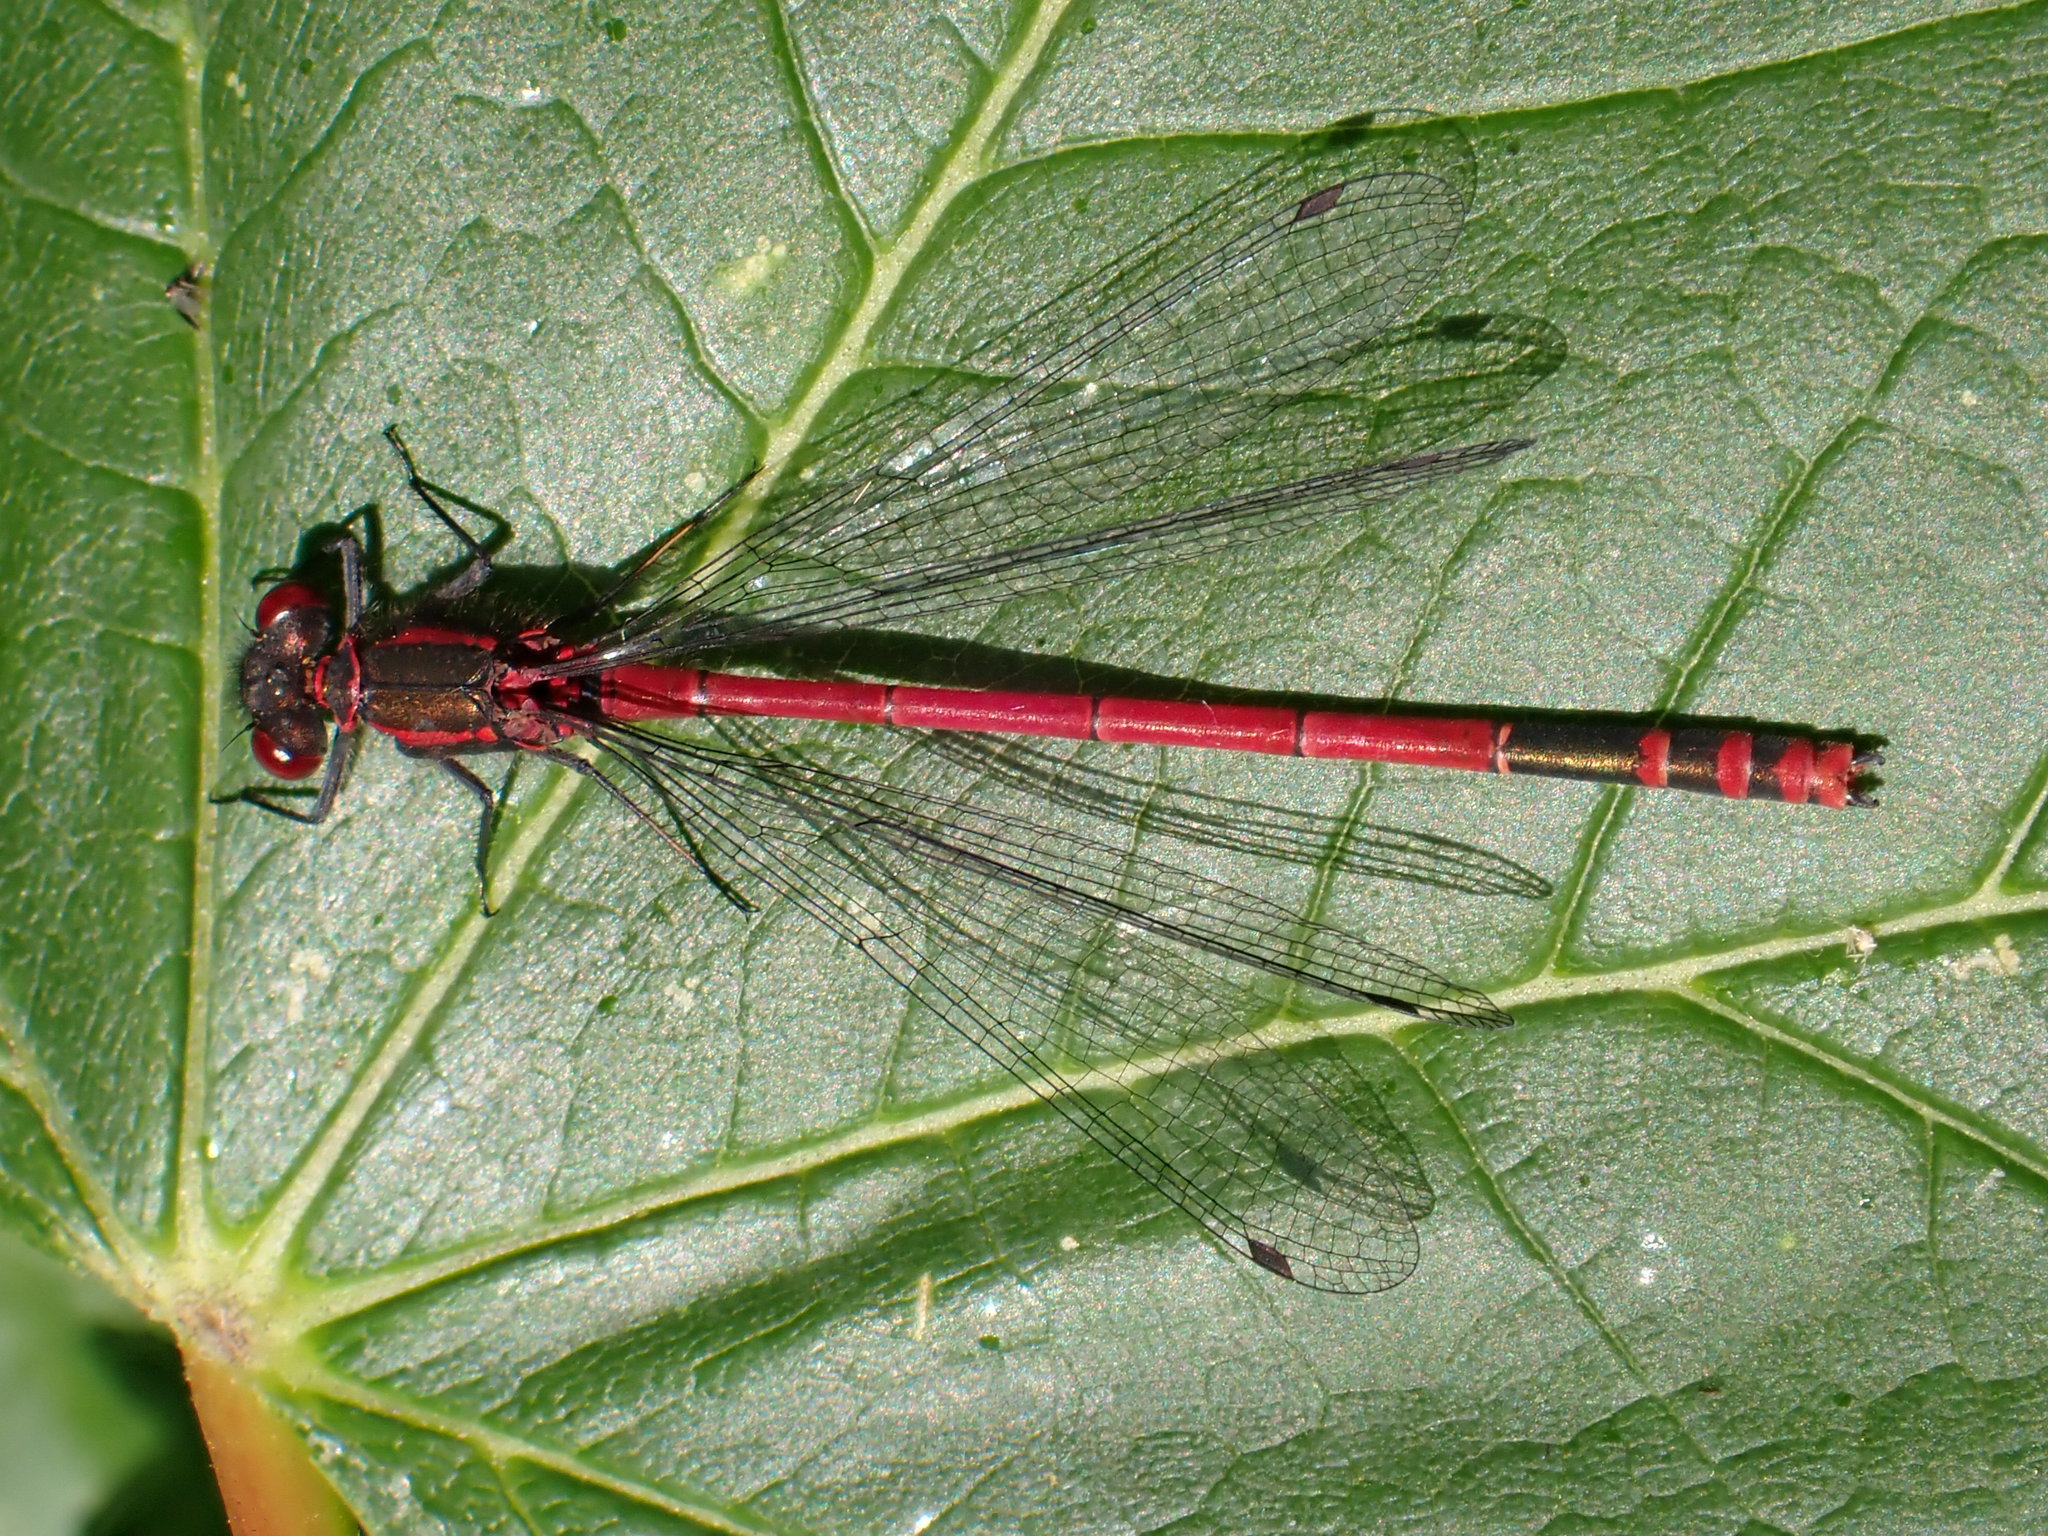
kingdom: Animalia
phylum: Arthropoda
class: Insecta
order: Odonata
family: Coenagrionidae
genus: Pyrrhosoma
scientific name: Pyrrhosoma nymphula
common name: Large red damsel
